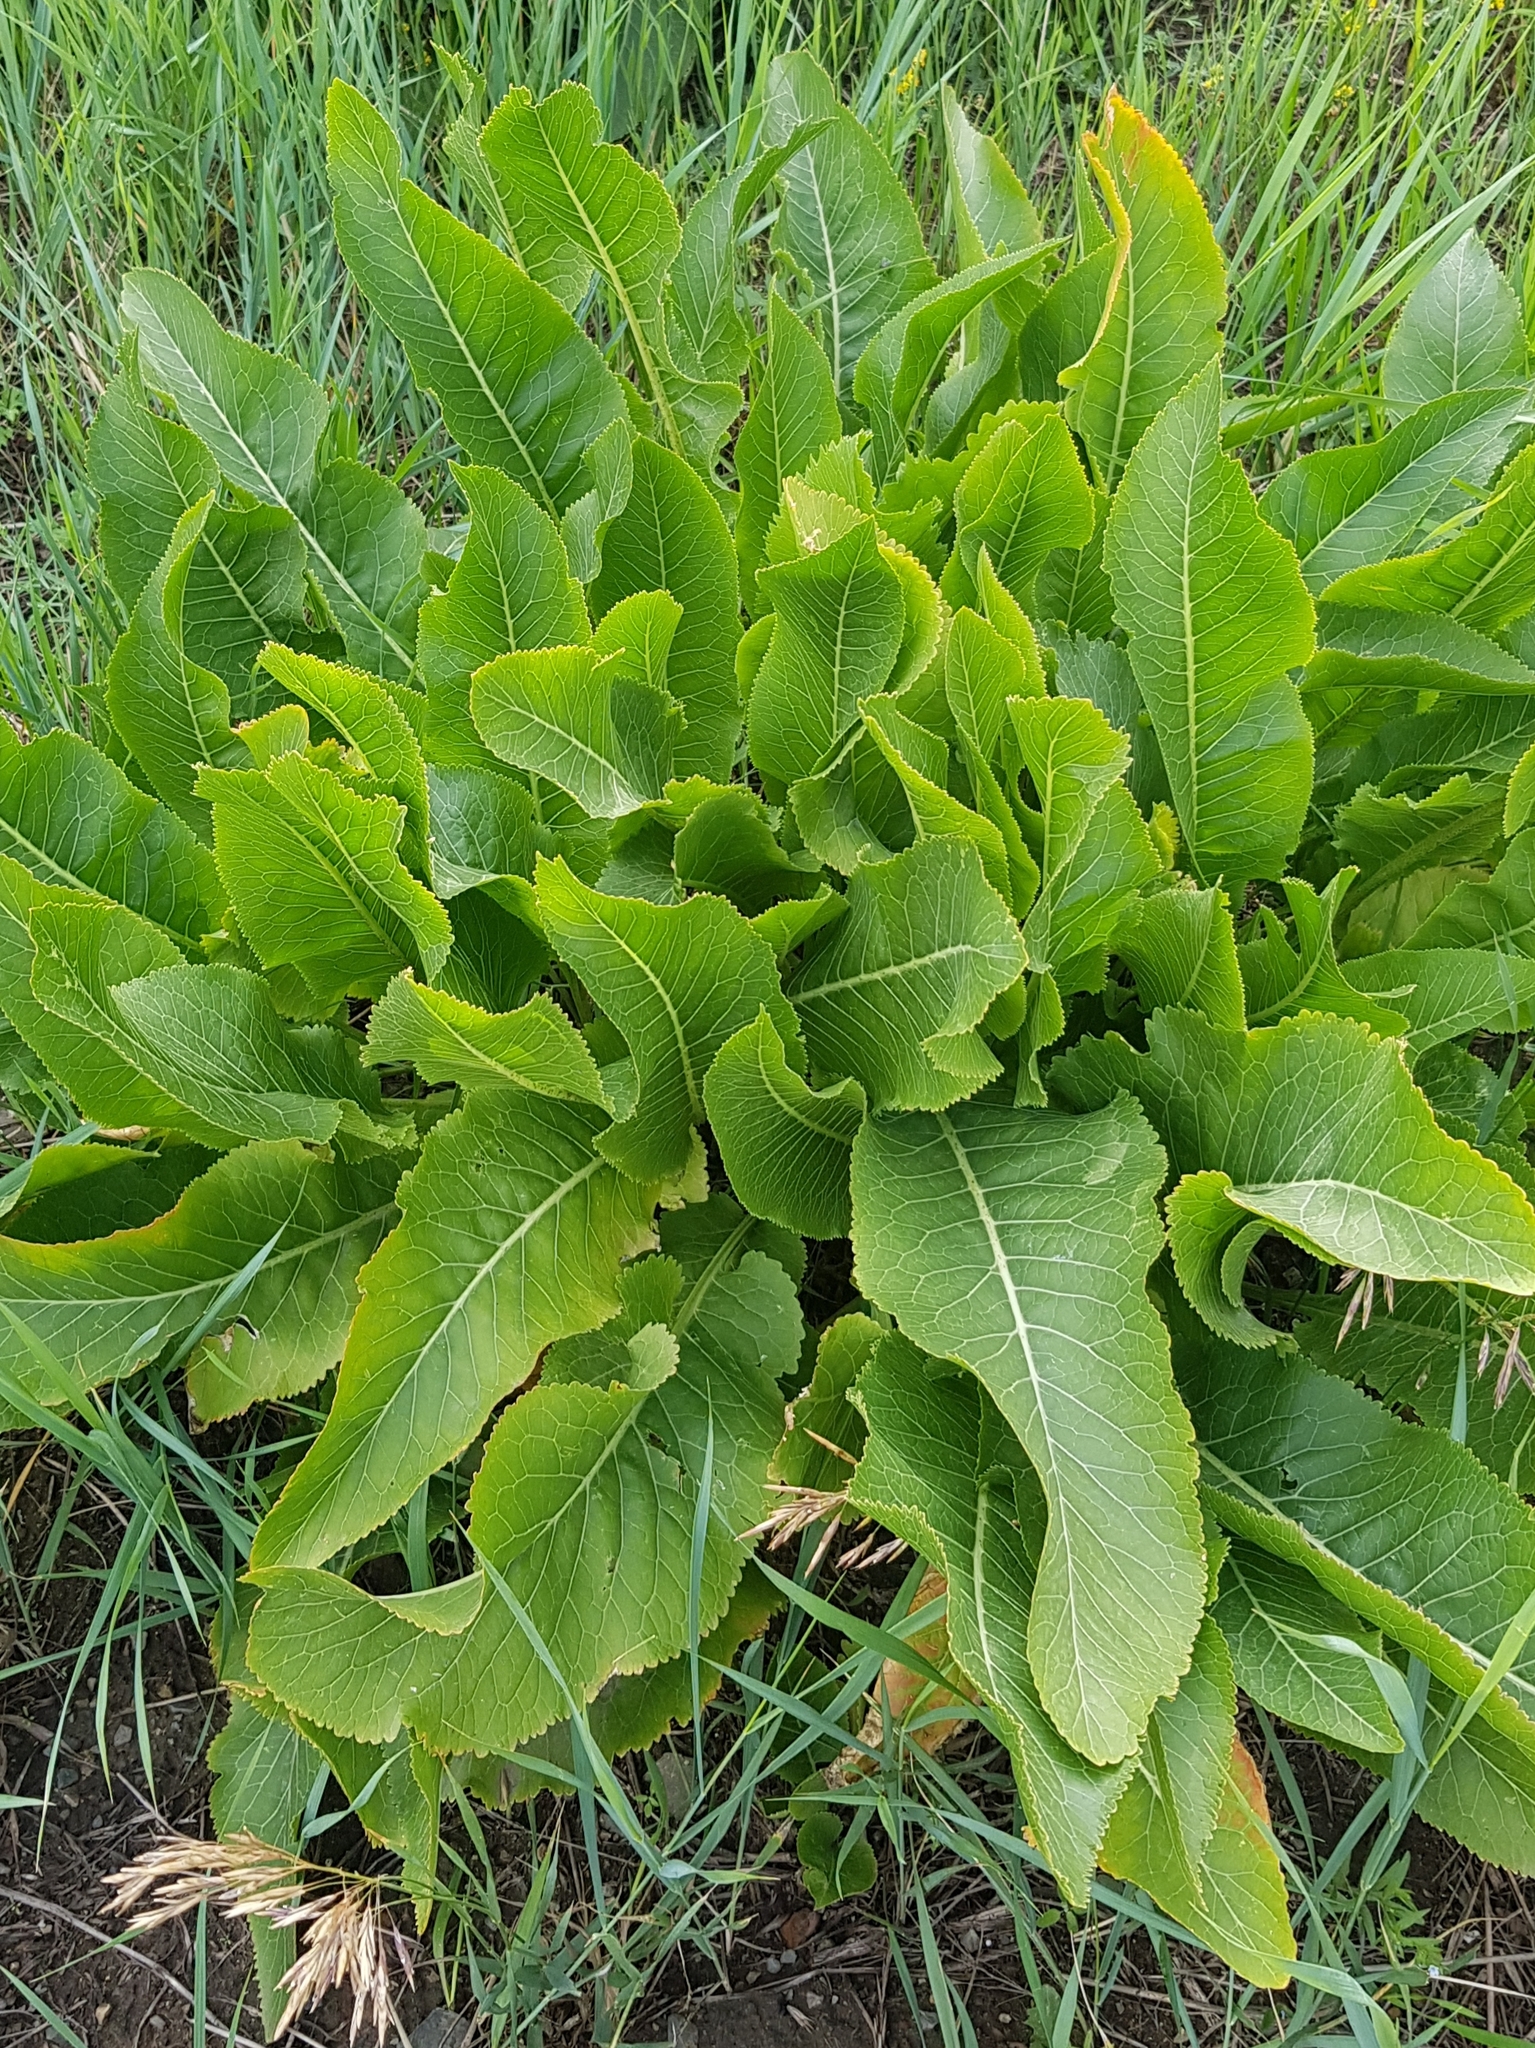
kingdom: Plantae
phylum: Tracheophyta
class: Magnoliopsida
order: Brassicales
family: Brassicaceae
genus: Armoracia
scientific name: Armoracia rusticana
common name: Horseradish
